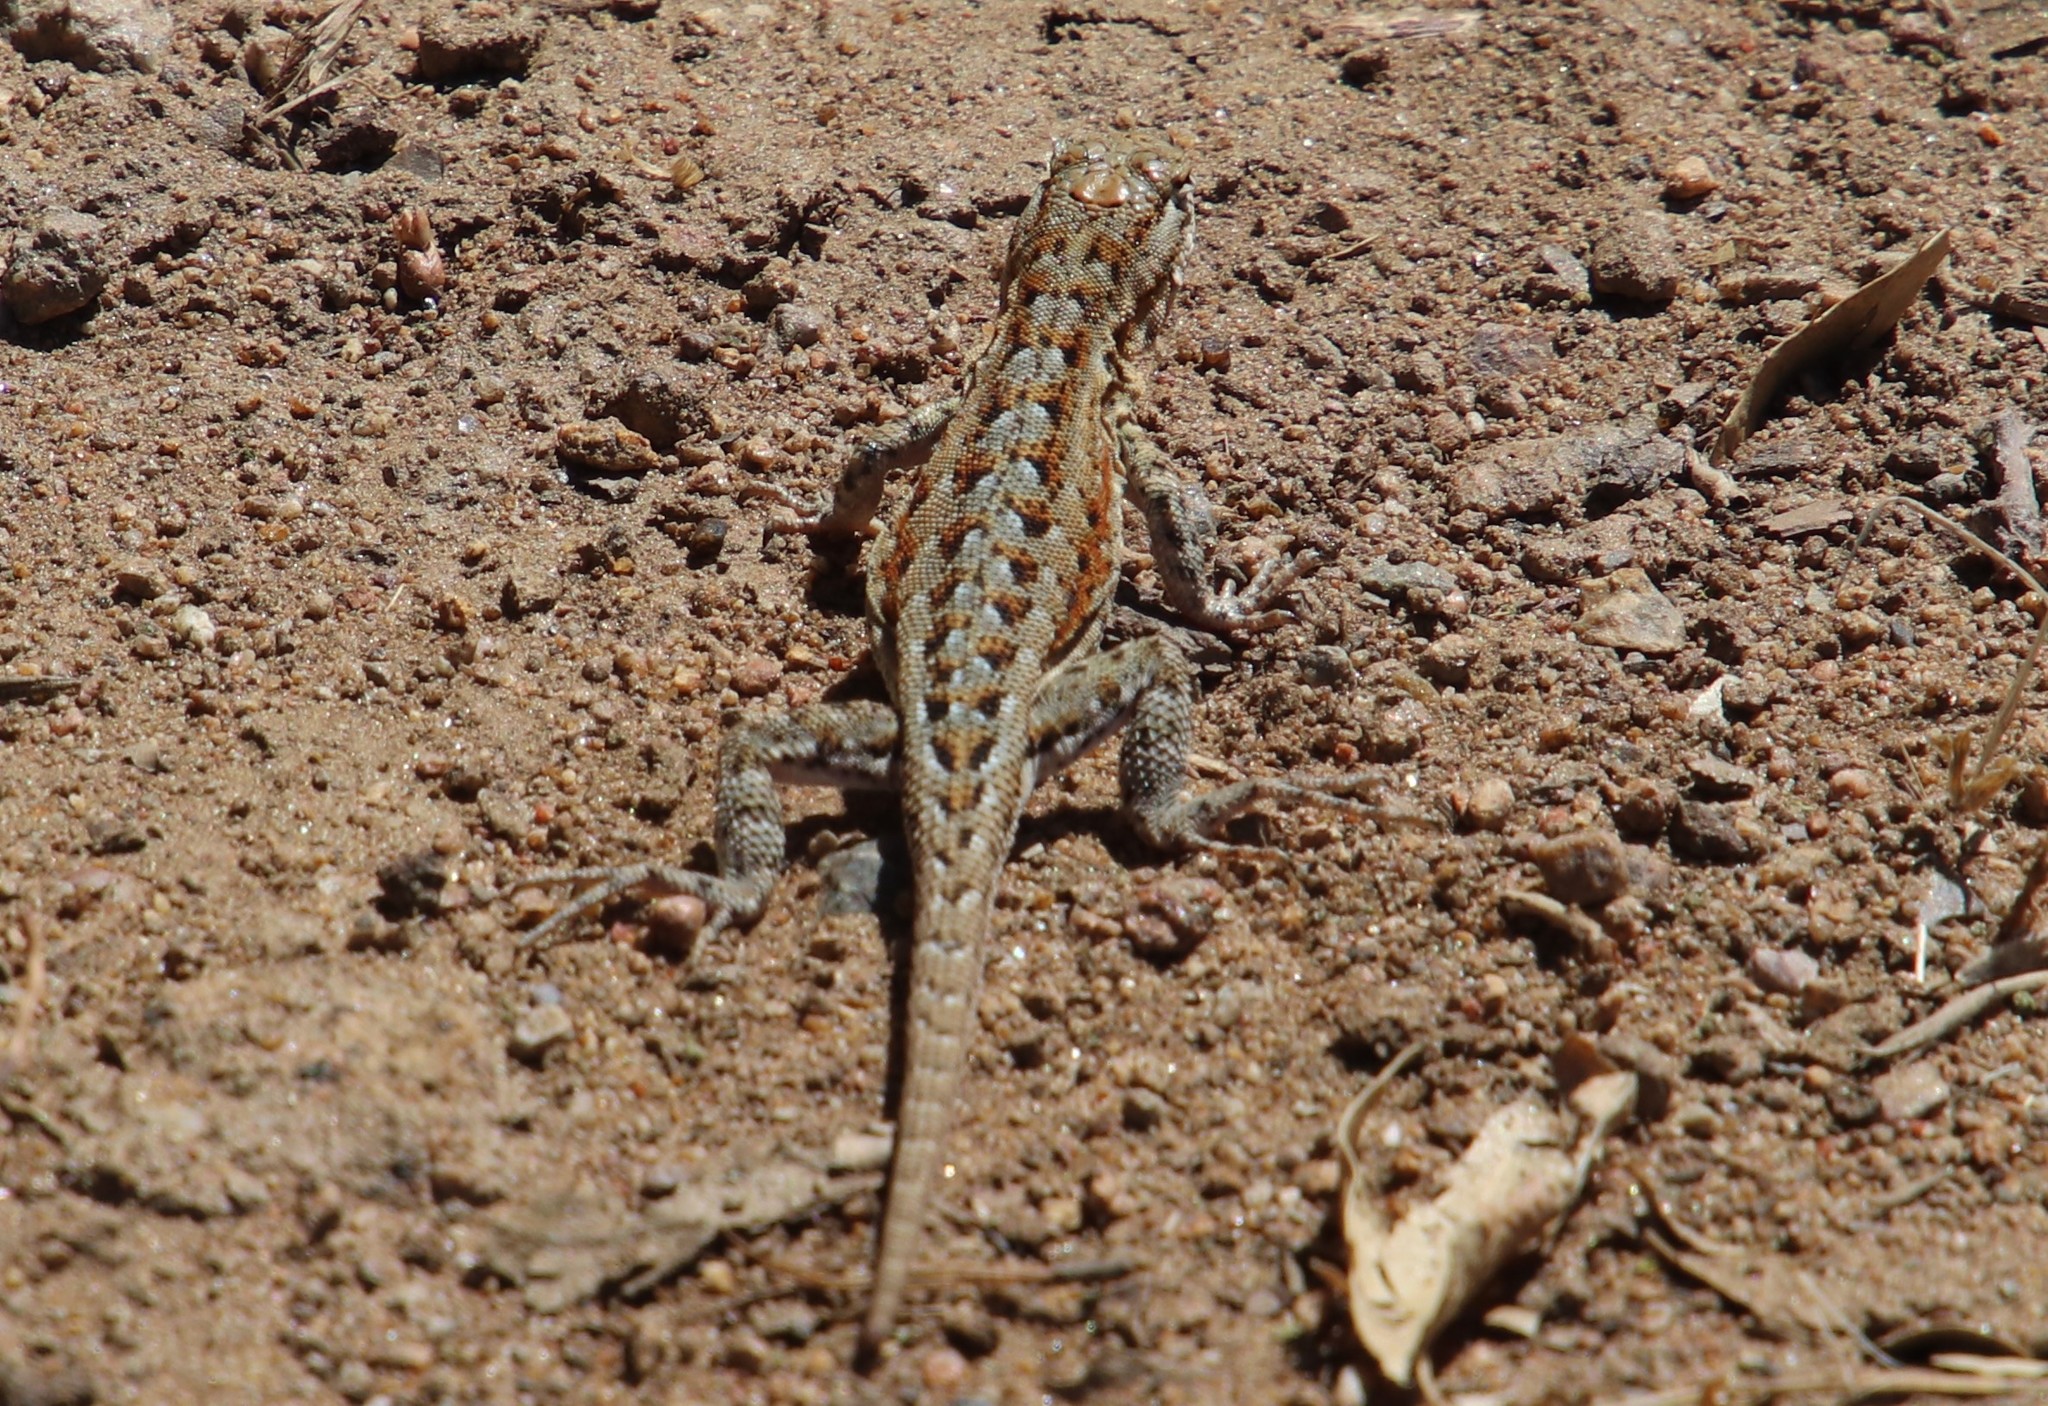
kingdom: Animalia
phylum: Chordata
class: Squamata
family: Phrynosomatidae
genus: Uta
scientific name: Uta stansburiana
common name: Side-blotched lizard
